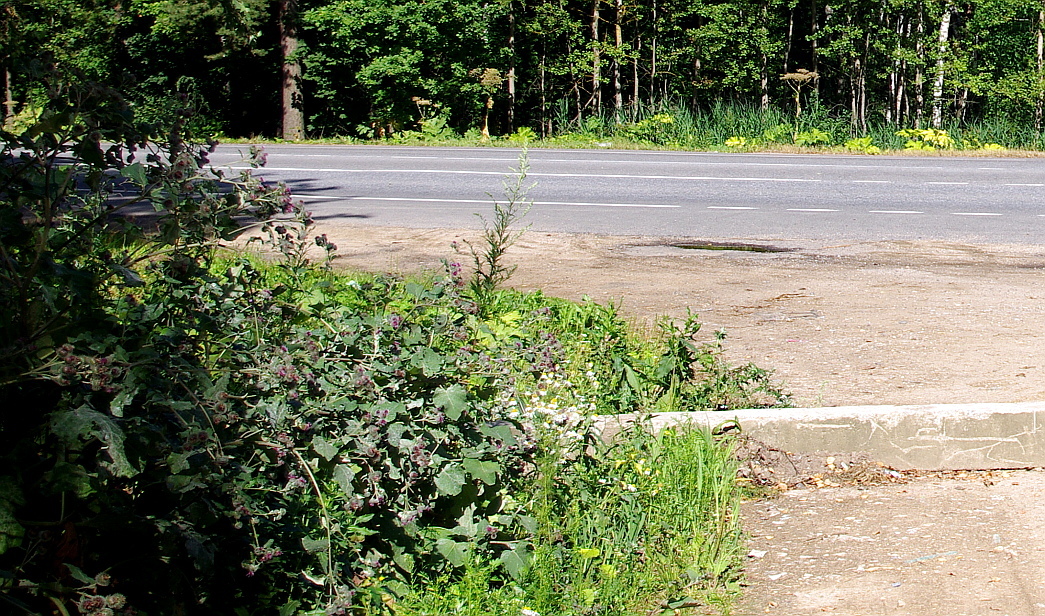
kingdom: Plantae
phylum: Tracheophyta
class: Magnoliopsida
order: Asterales
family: Asteraceae
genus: Artemisia
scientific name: Artemisia vulgaris
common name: Mugwort
